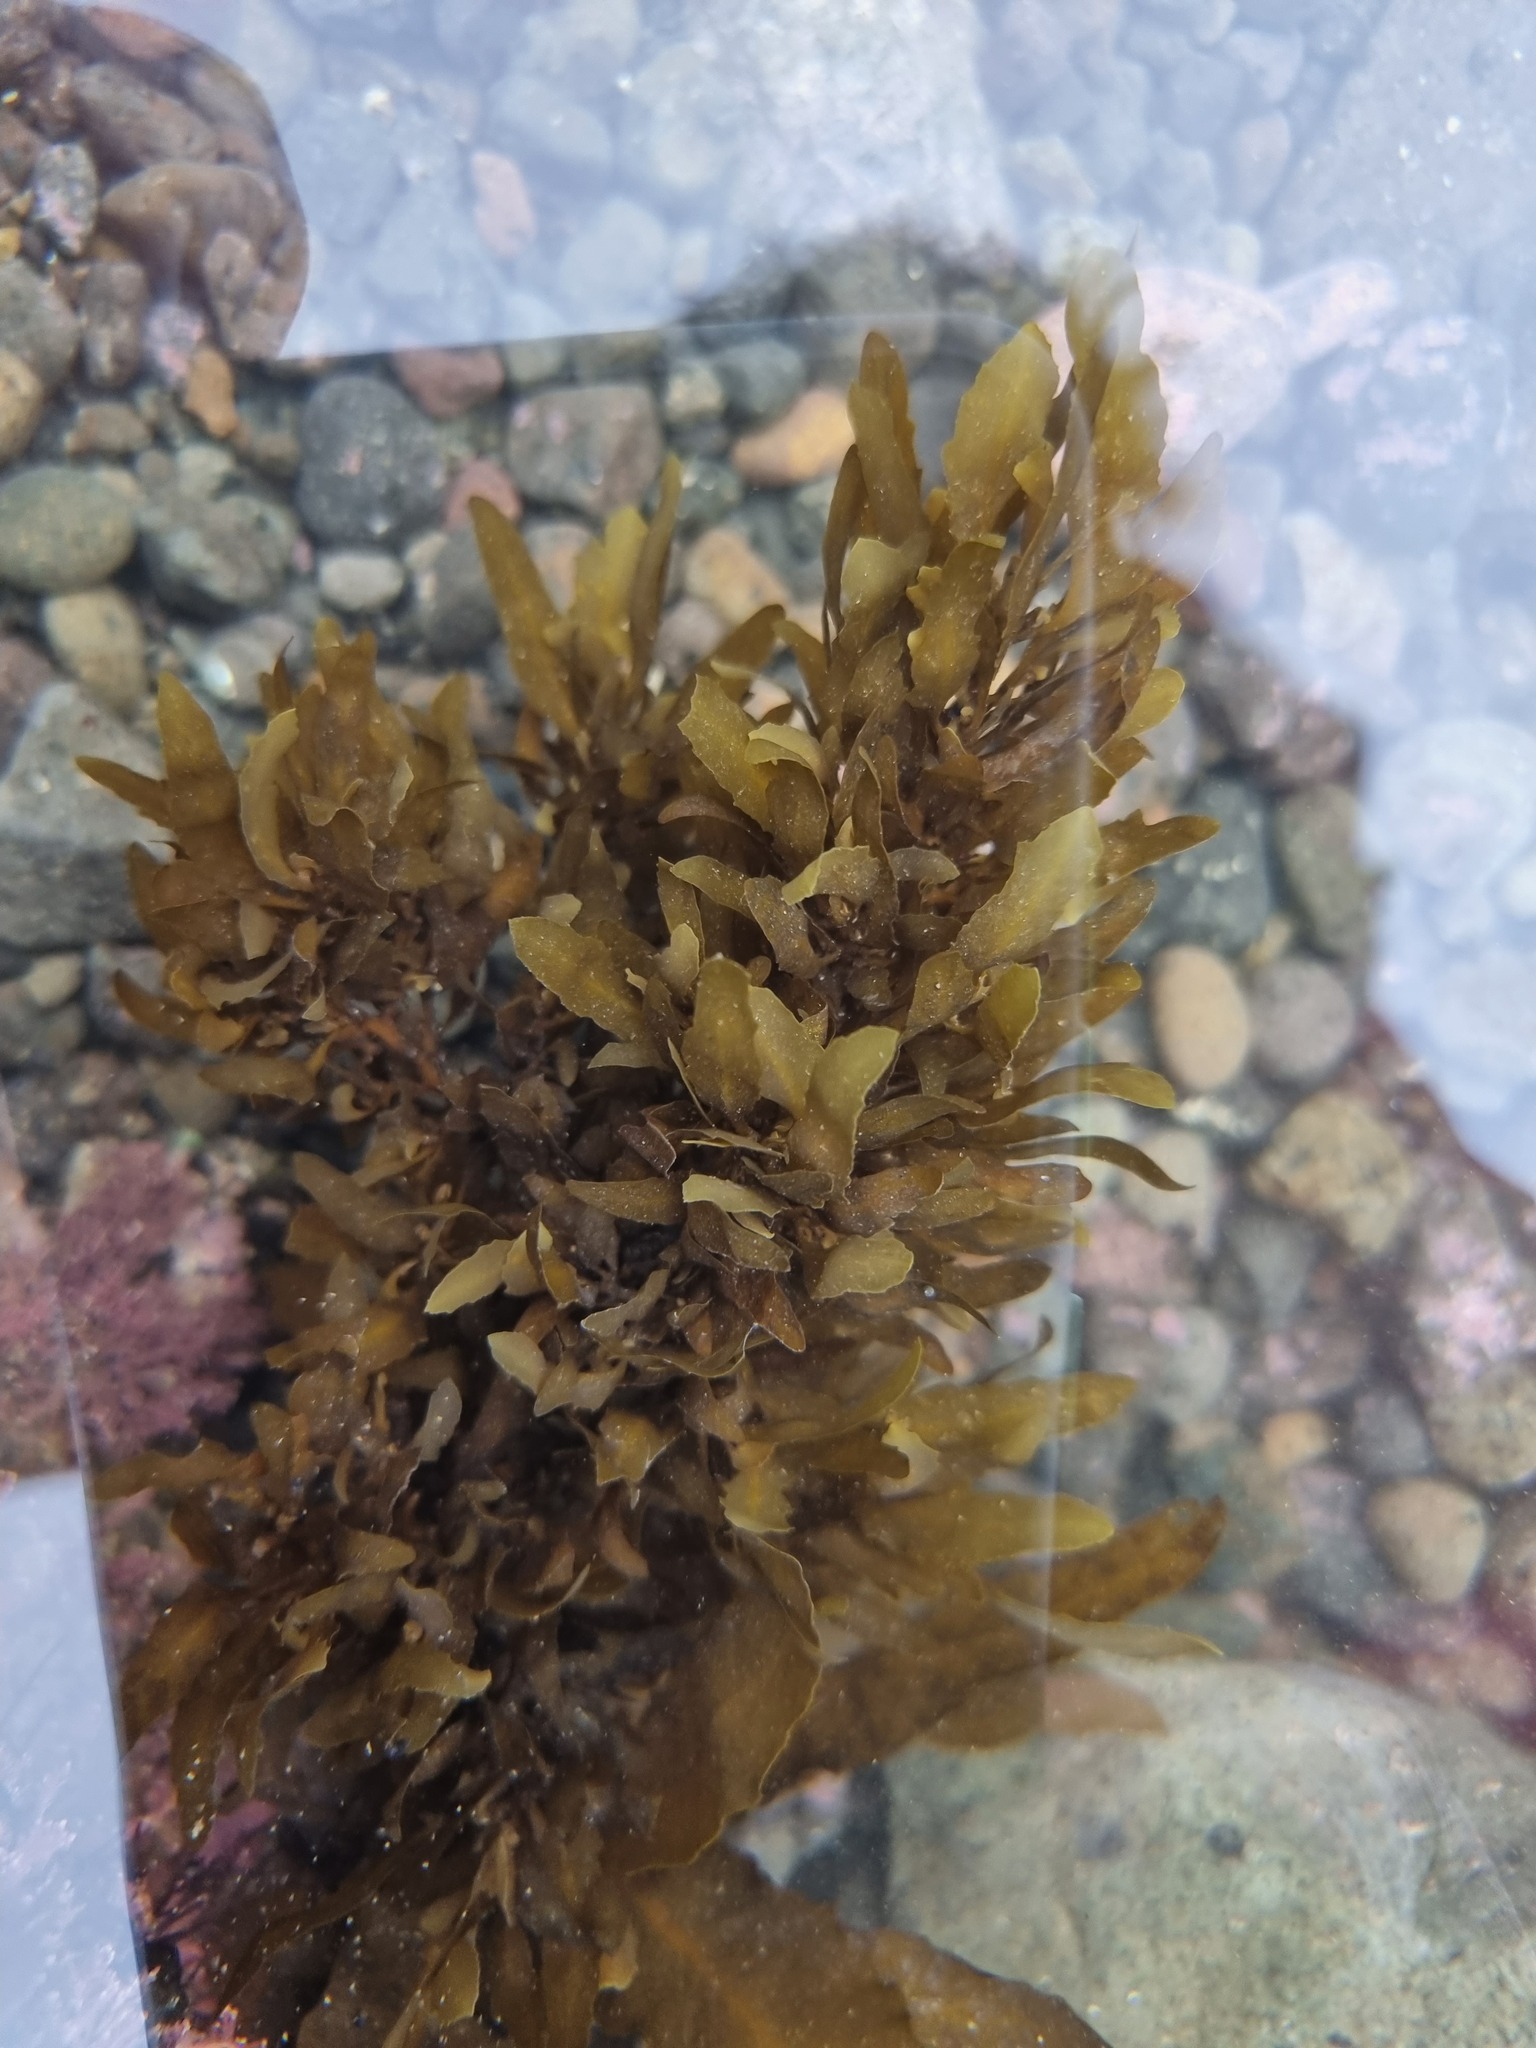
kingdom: Chromista
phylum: Ochrophyta
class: Phaeophyceae
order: Fucales
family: Sargassaceae
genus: Sargassum
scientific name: Sargassum sinclairii
